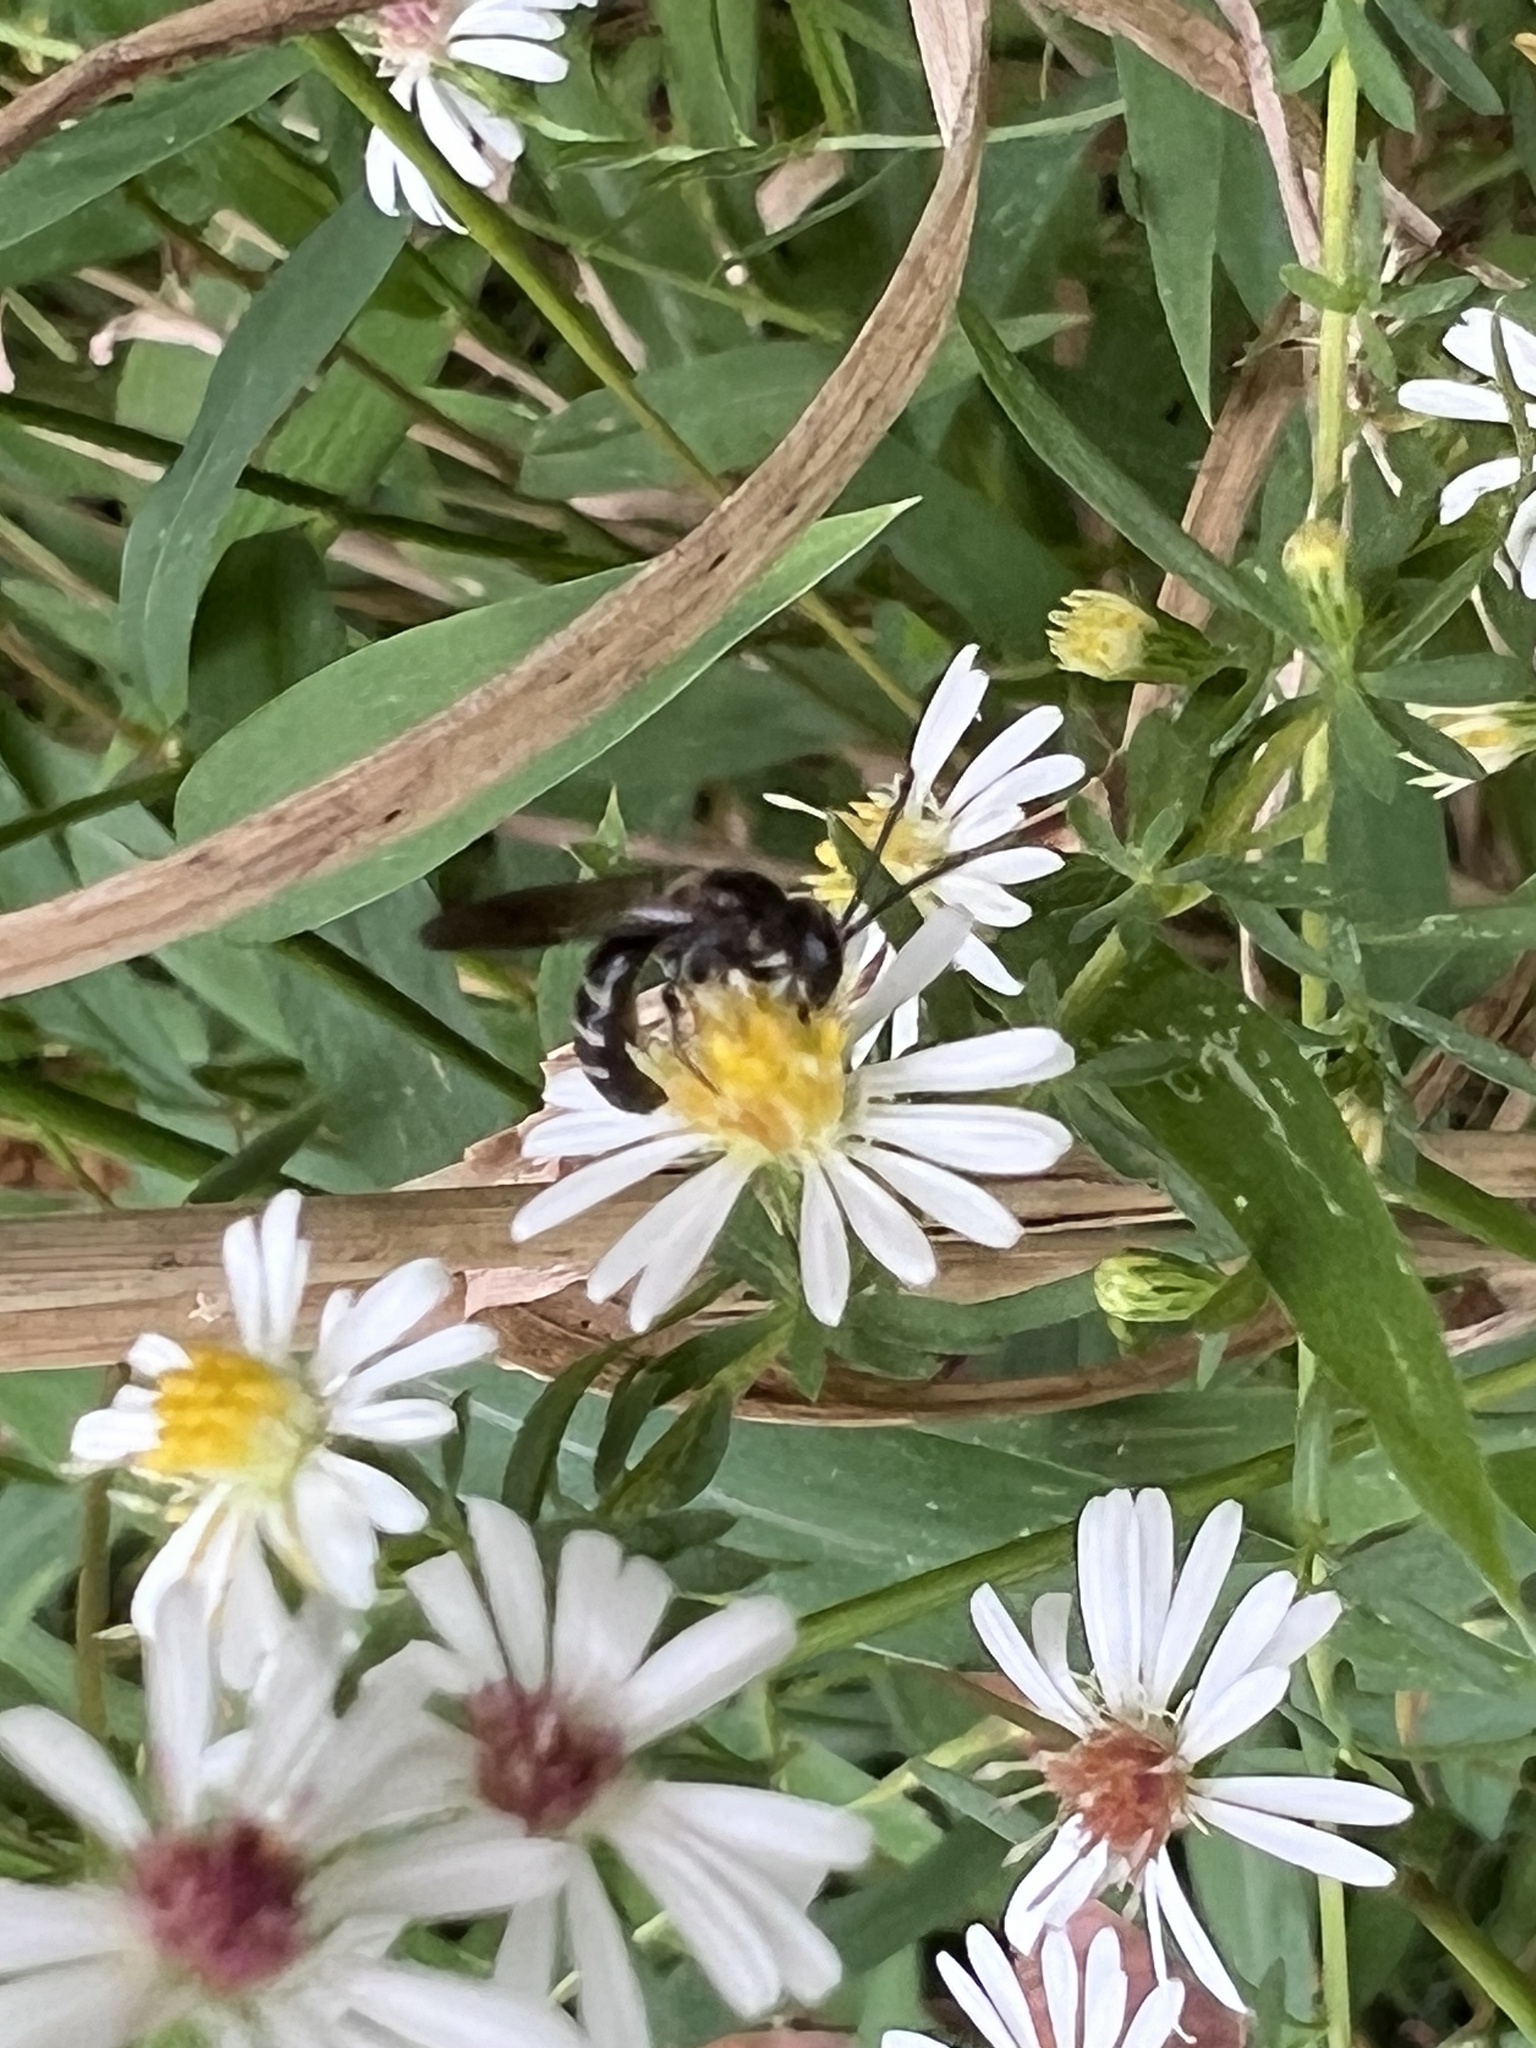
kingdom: Animalia
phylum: Arthropoda
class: Insecta
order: Hymenoptera
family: Halictidae
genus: Lasioglossum
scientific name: Lasioglossum fuscipenne
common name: Brown-winged sweat bee
